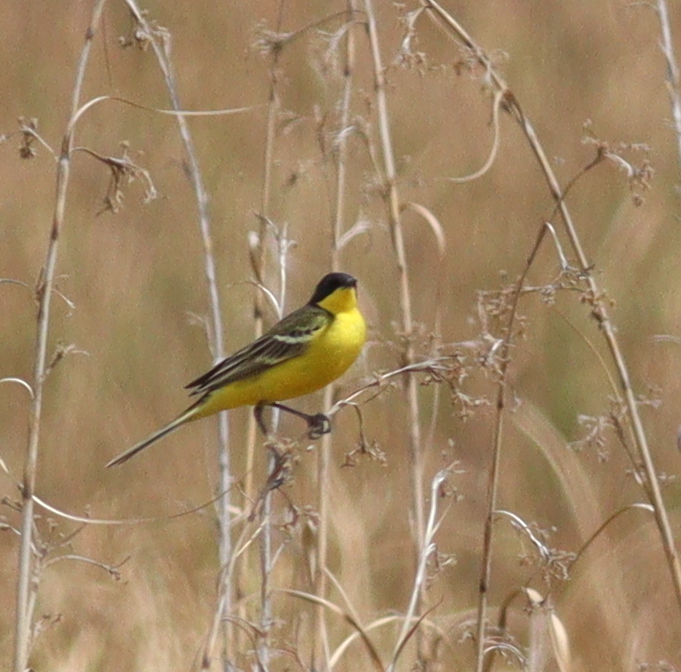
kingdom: Animalia
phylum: Chordata
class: Aves
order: Passeriformes
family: Motacillidae
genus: Motacilla
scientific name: Motacilla flava
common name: Western yellow wagtail
